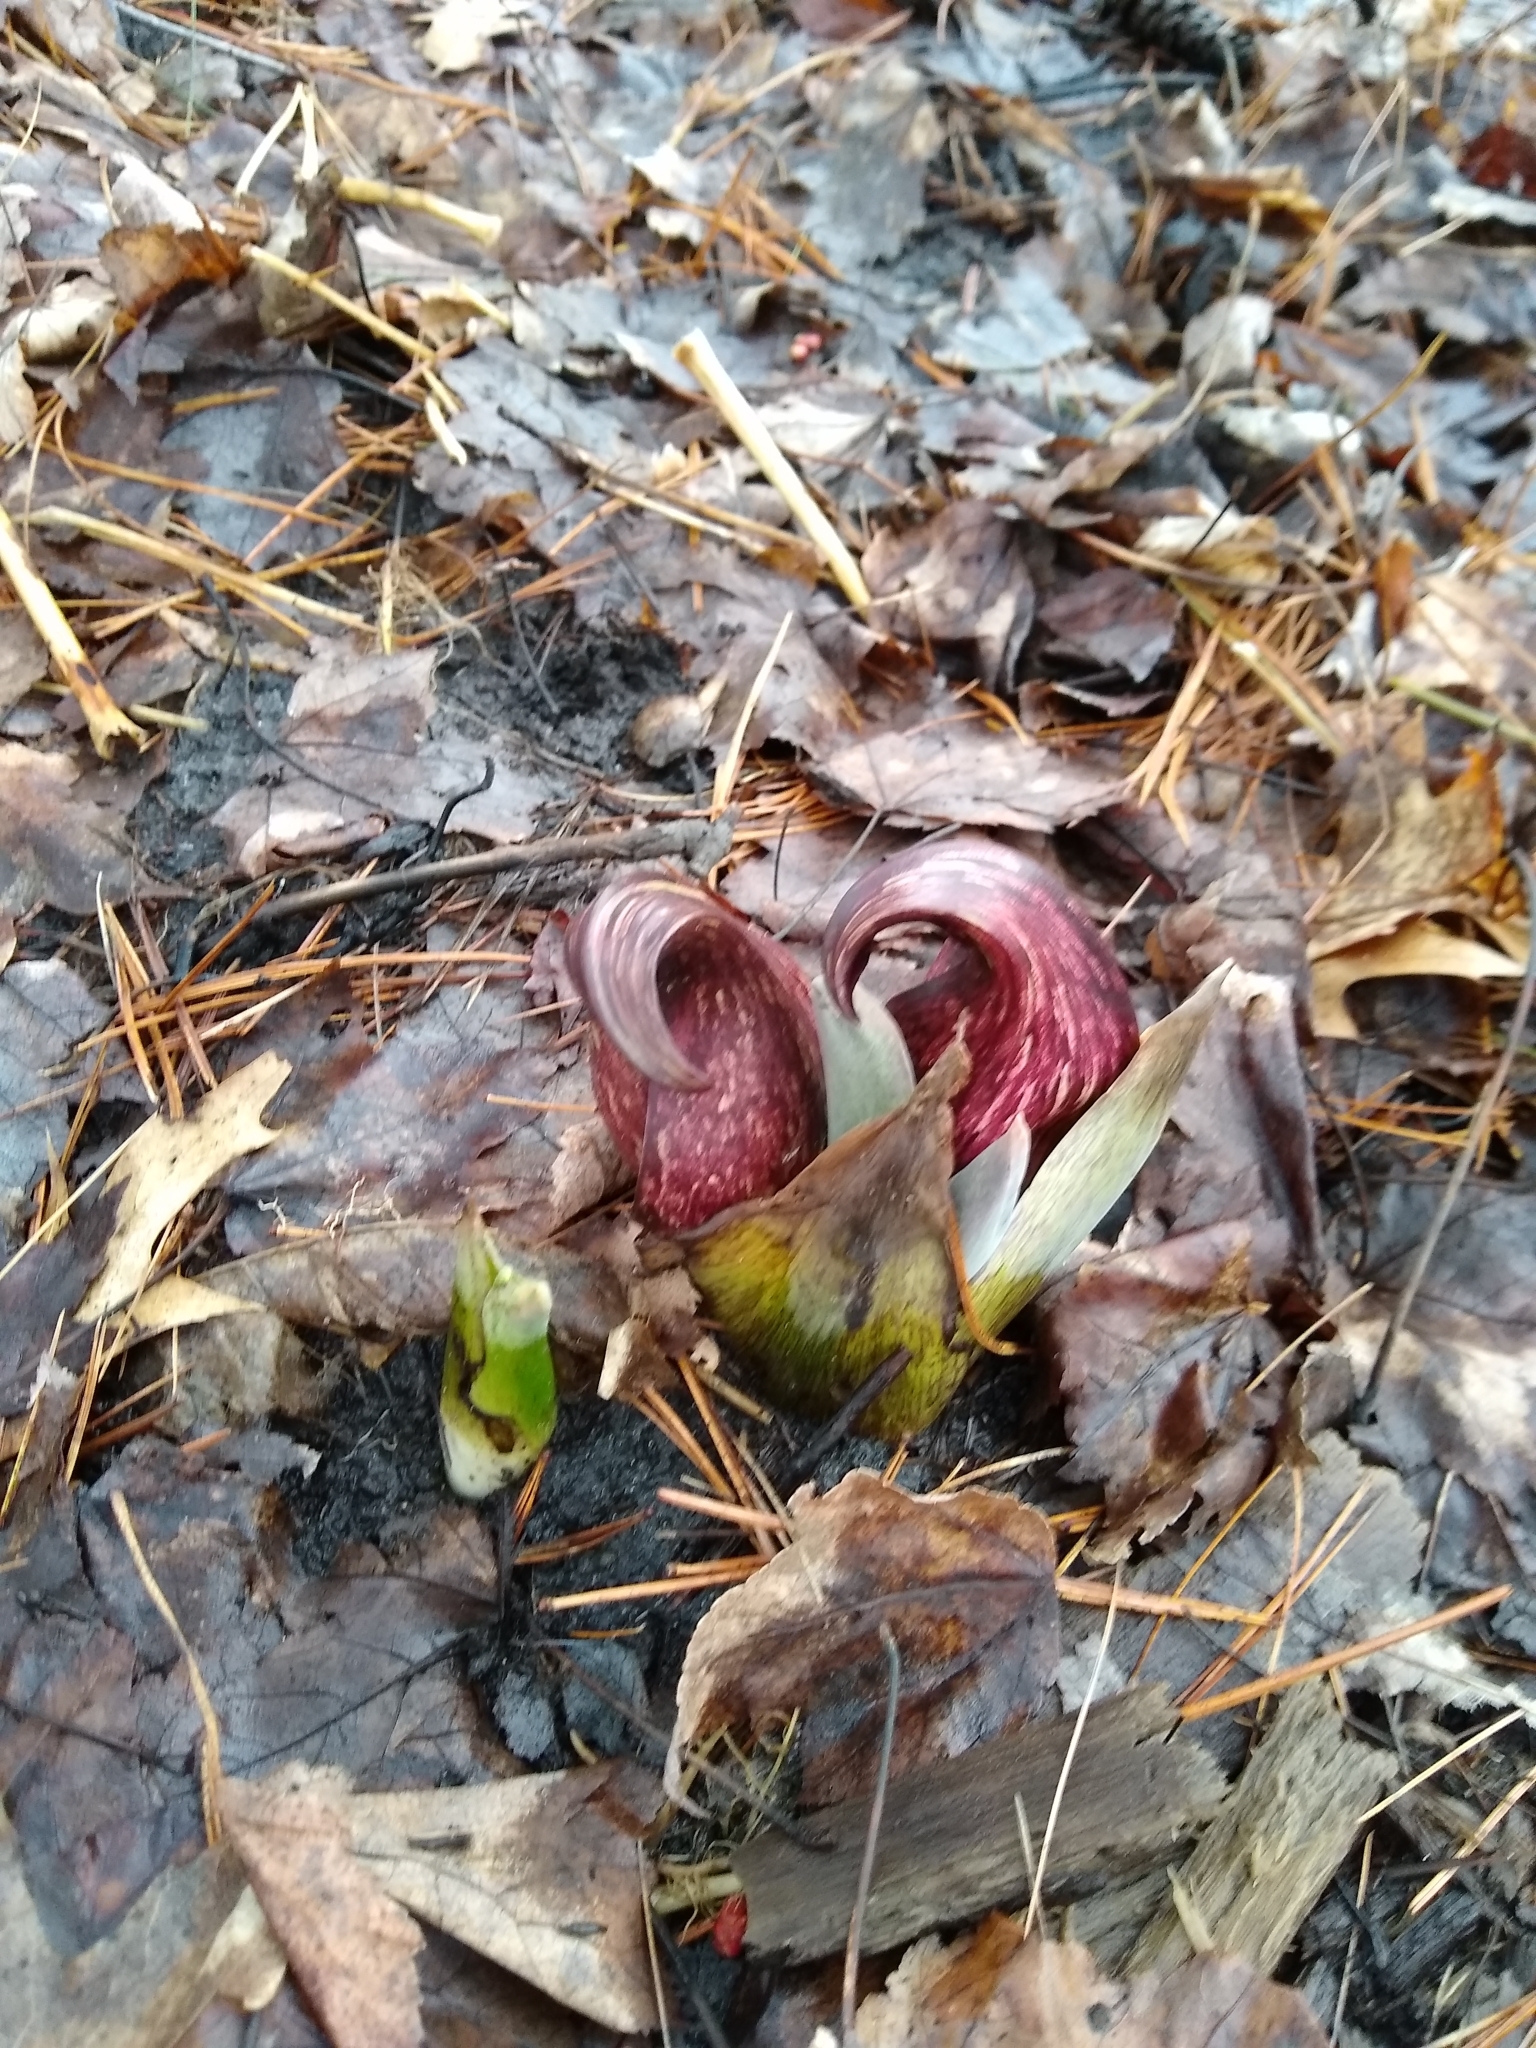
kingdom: Plantae
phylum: Tracheophyta
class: Liliopsida
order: Alismatales
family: Araceae
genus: Symplocarpus
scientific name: Symplocarpus foetidus
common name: Eastern skunk cabbage
